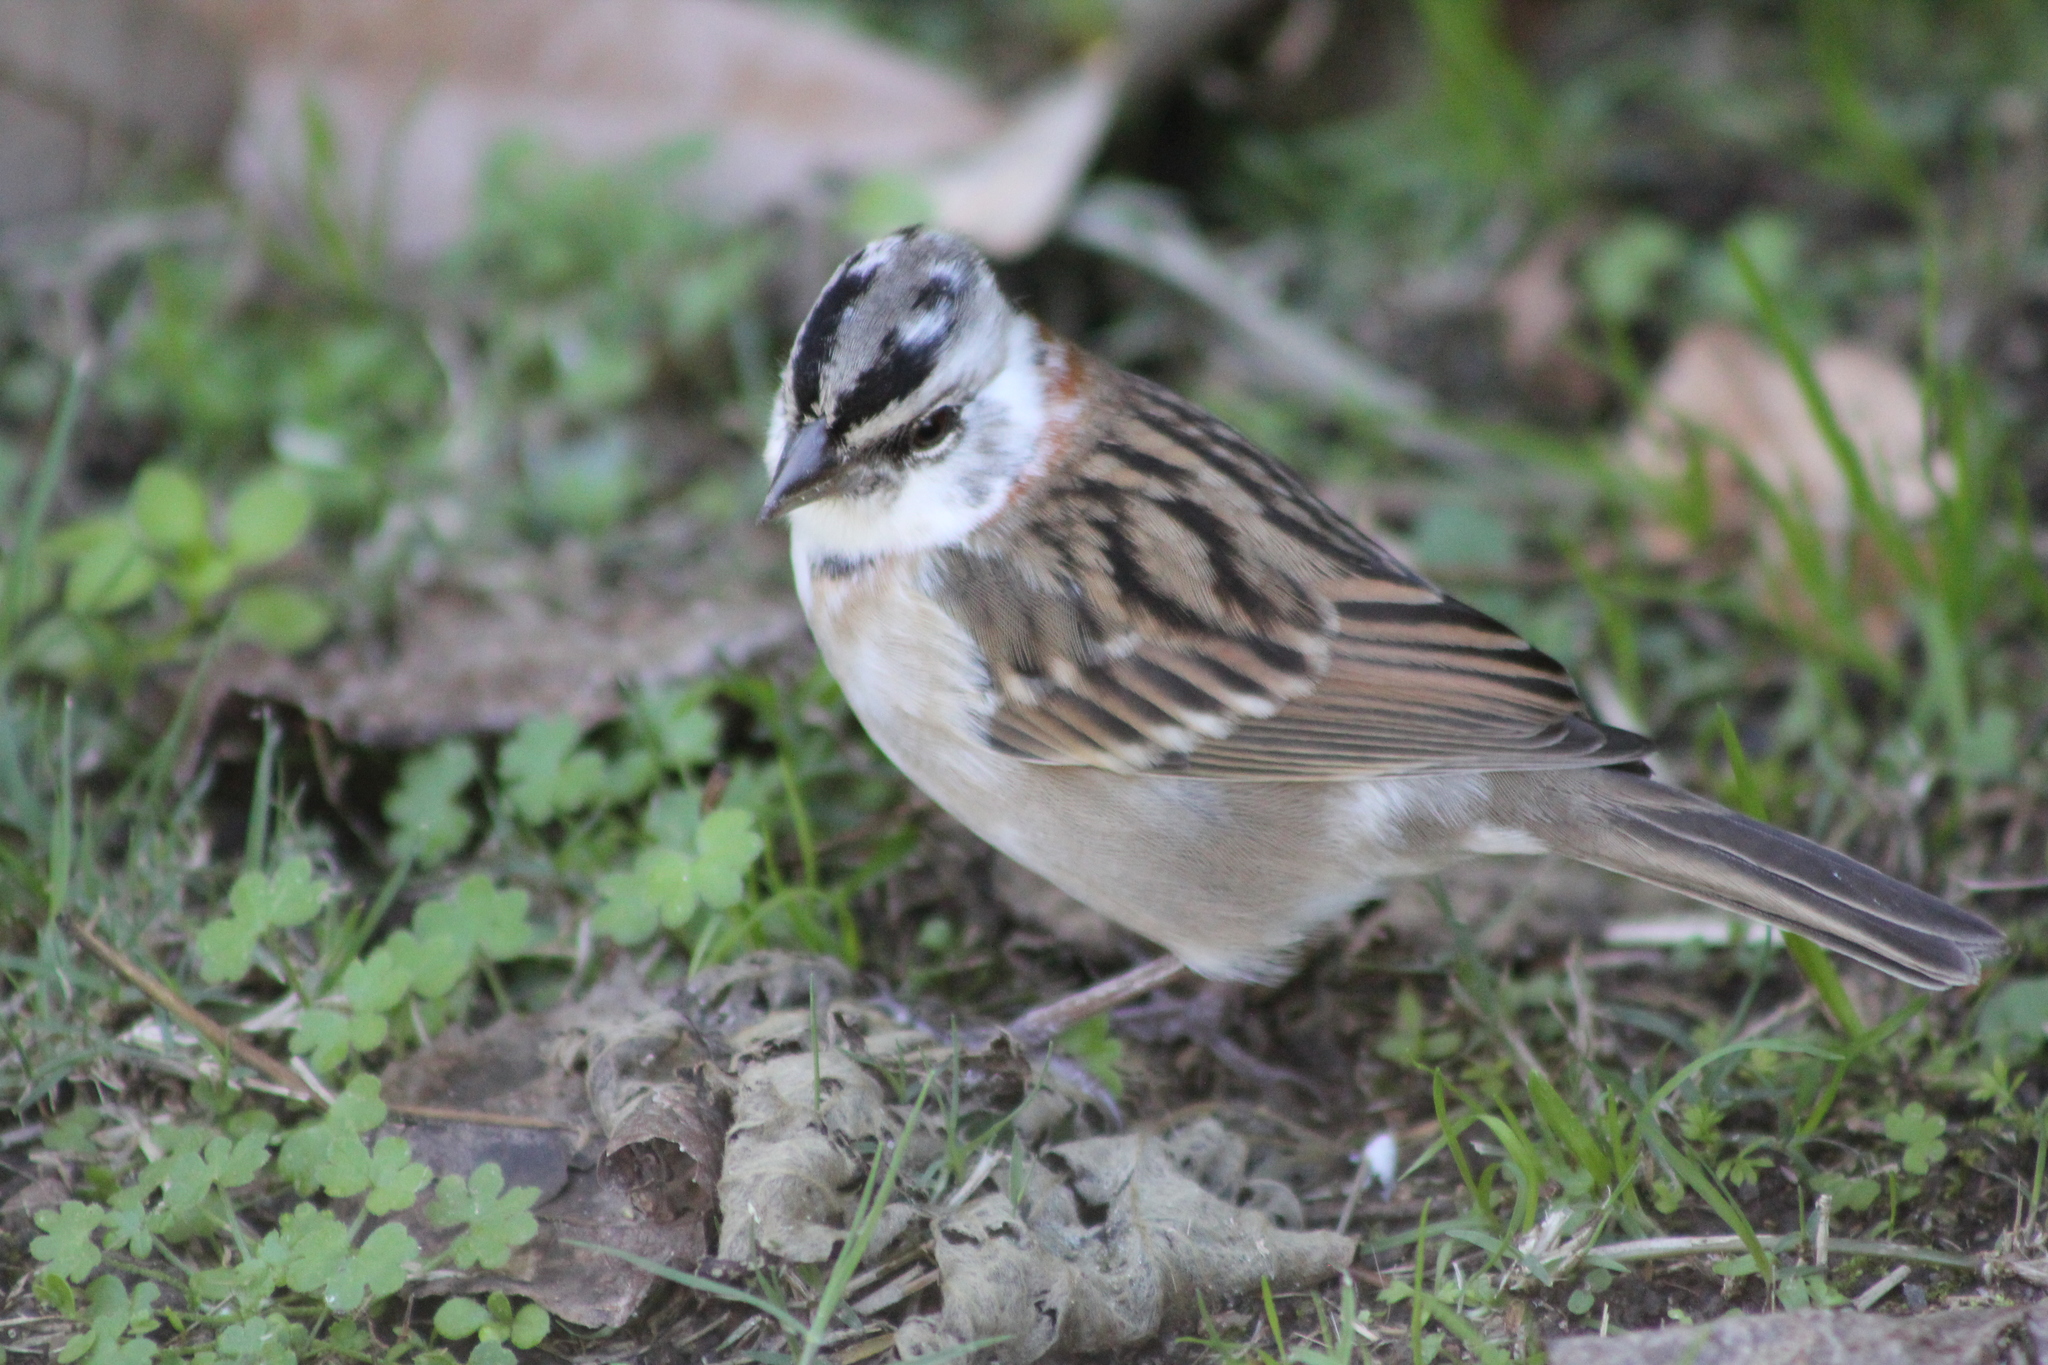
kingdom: Animalia
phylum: Chordata
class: Aves
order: Passeriformes
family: Passerellidae
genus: Zonotrichia
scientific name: Zonotrichia capensis
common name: Rufous-collared sparrow
